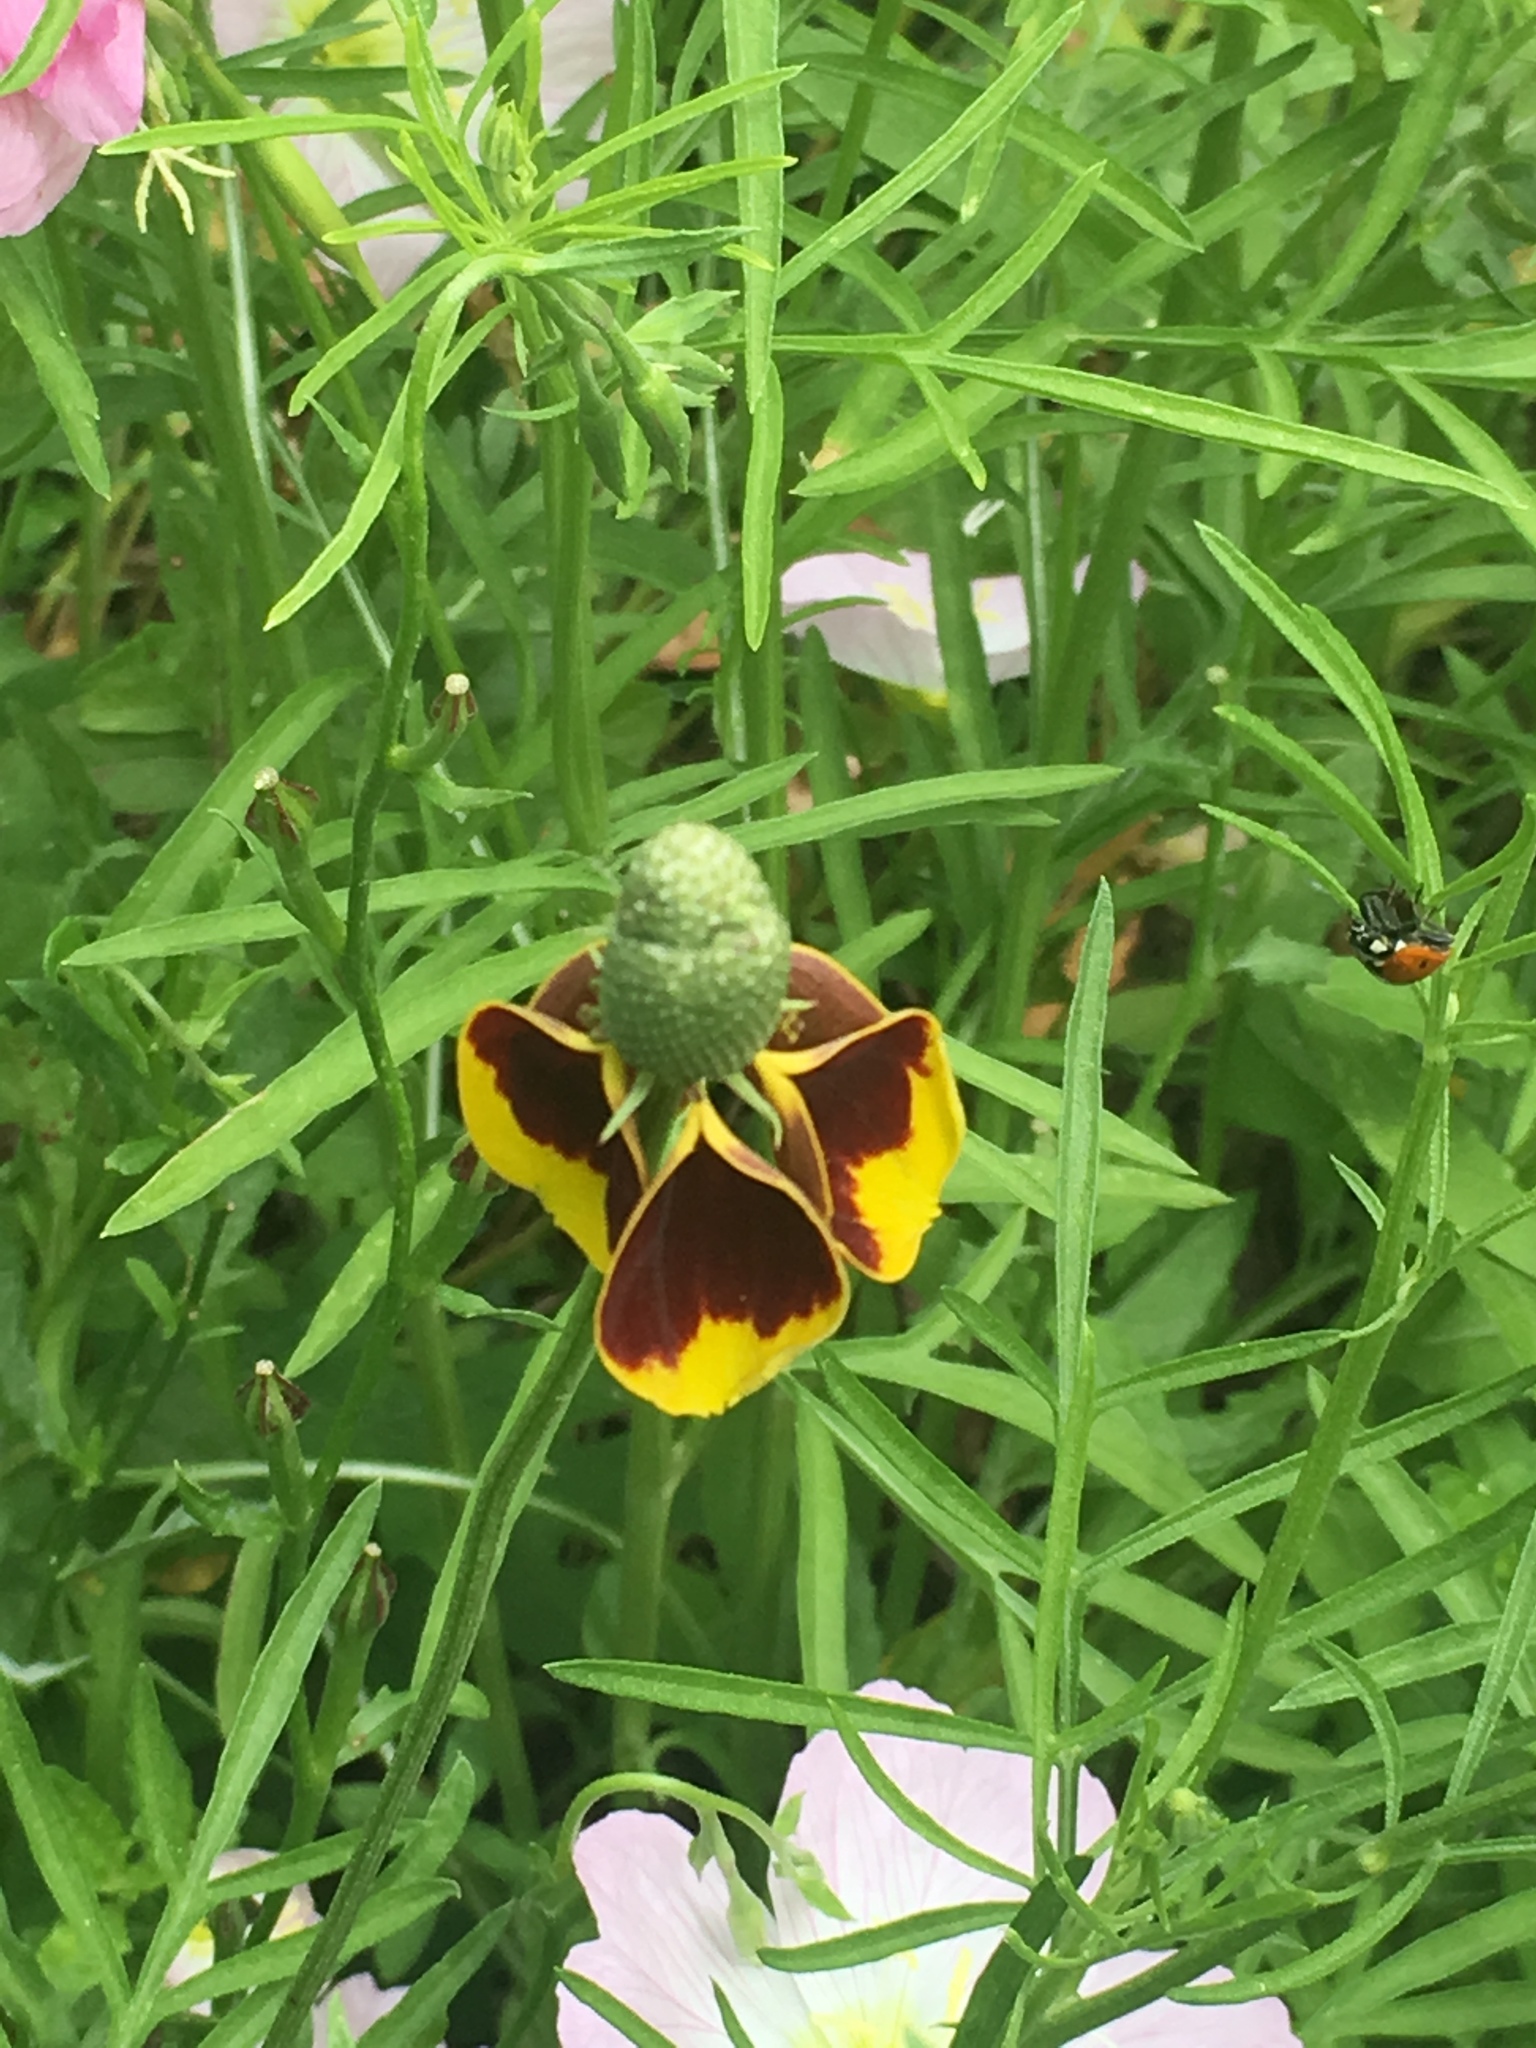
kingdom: Plantae
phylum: Tracheophyta
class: Magnoliopsida
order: Asterales
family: Asteraceae
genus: Ratibida
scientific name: Ratibida columnifera
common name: Prairie coneflower
